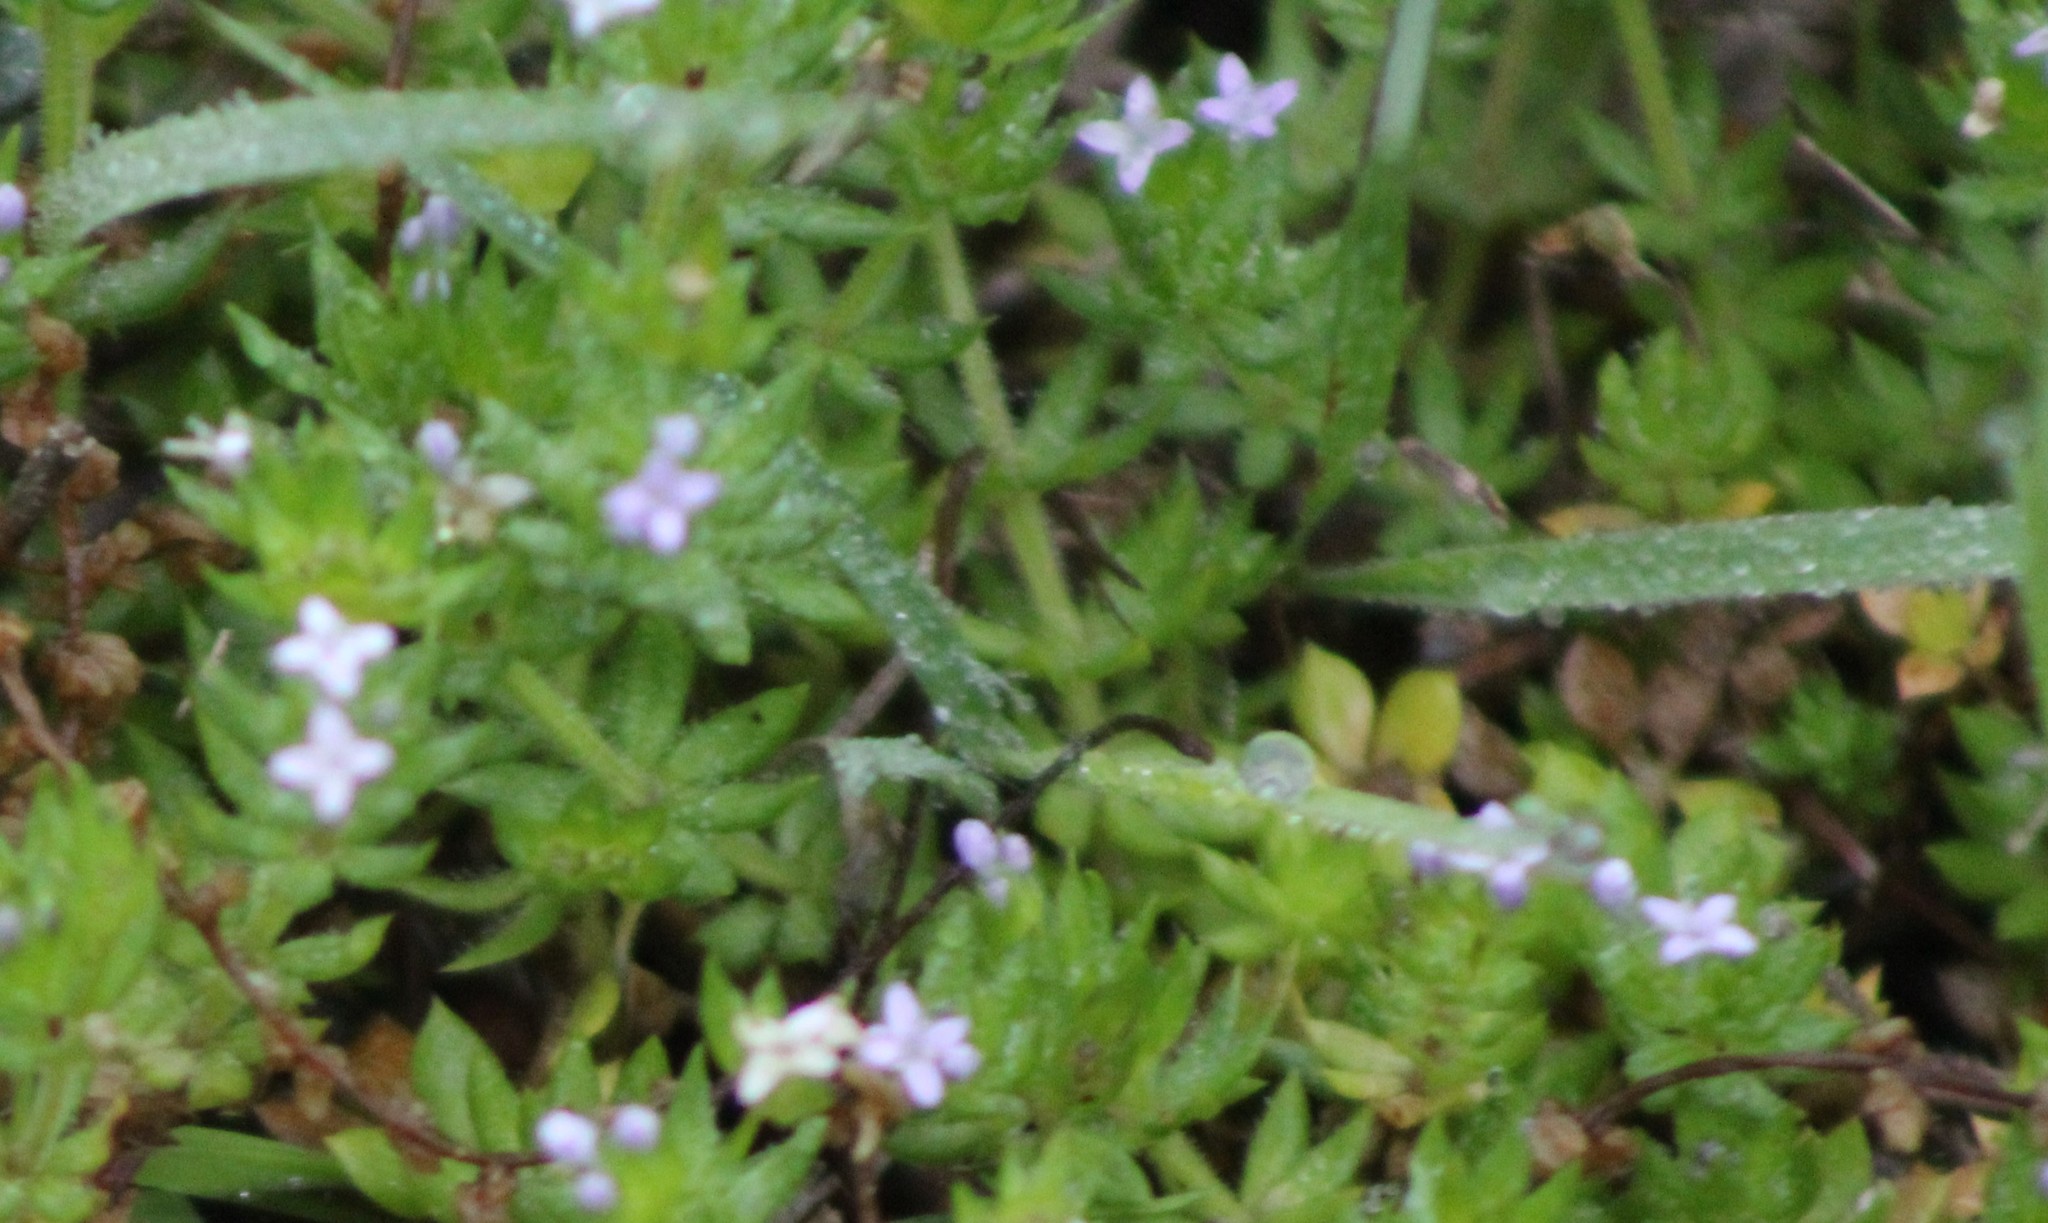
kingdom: Plantae
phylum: Tracheophyta
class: Magnoliopsida
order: Gentianales
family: Rubiaceae
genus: Sherardia
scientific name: Sherardia arvensis
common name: Field madder
